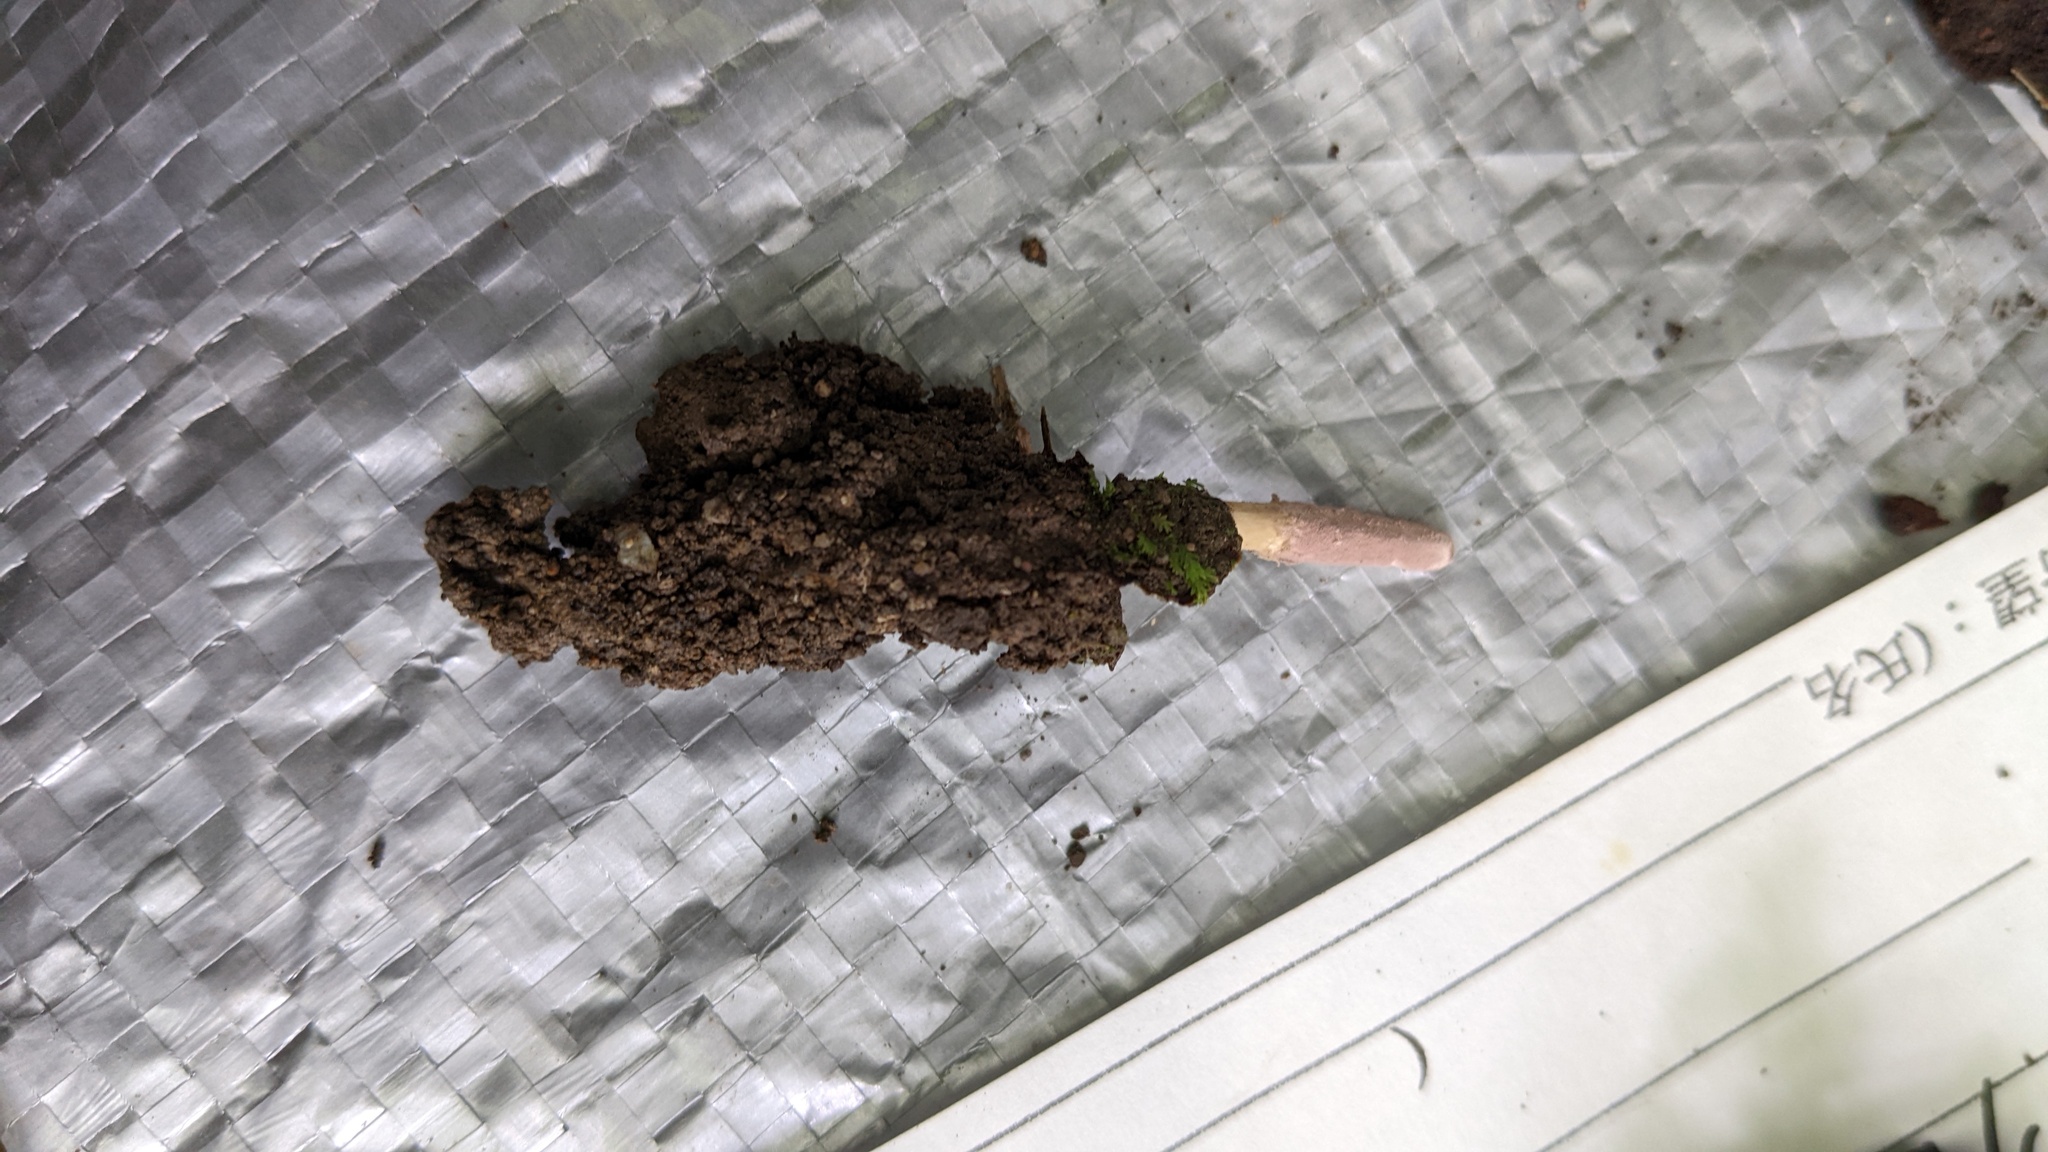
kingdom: Fungi
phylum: Ascomycota
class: Sordariomycetes
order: Hypocreales
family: Ophiocordycipitaceae
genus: Purpureocillium
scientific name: Purpureocillium atypicola
